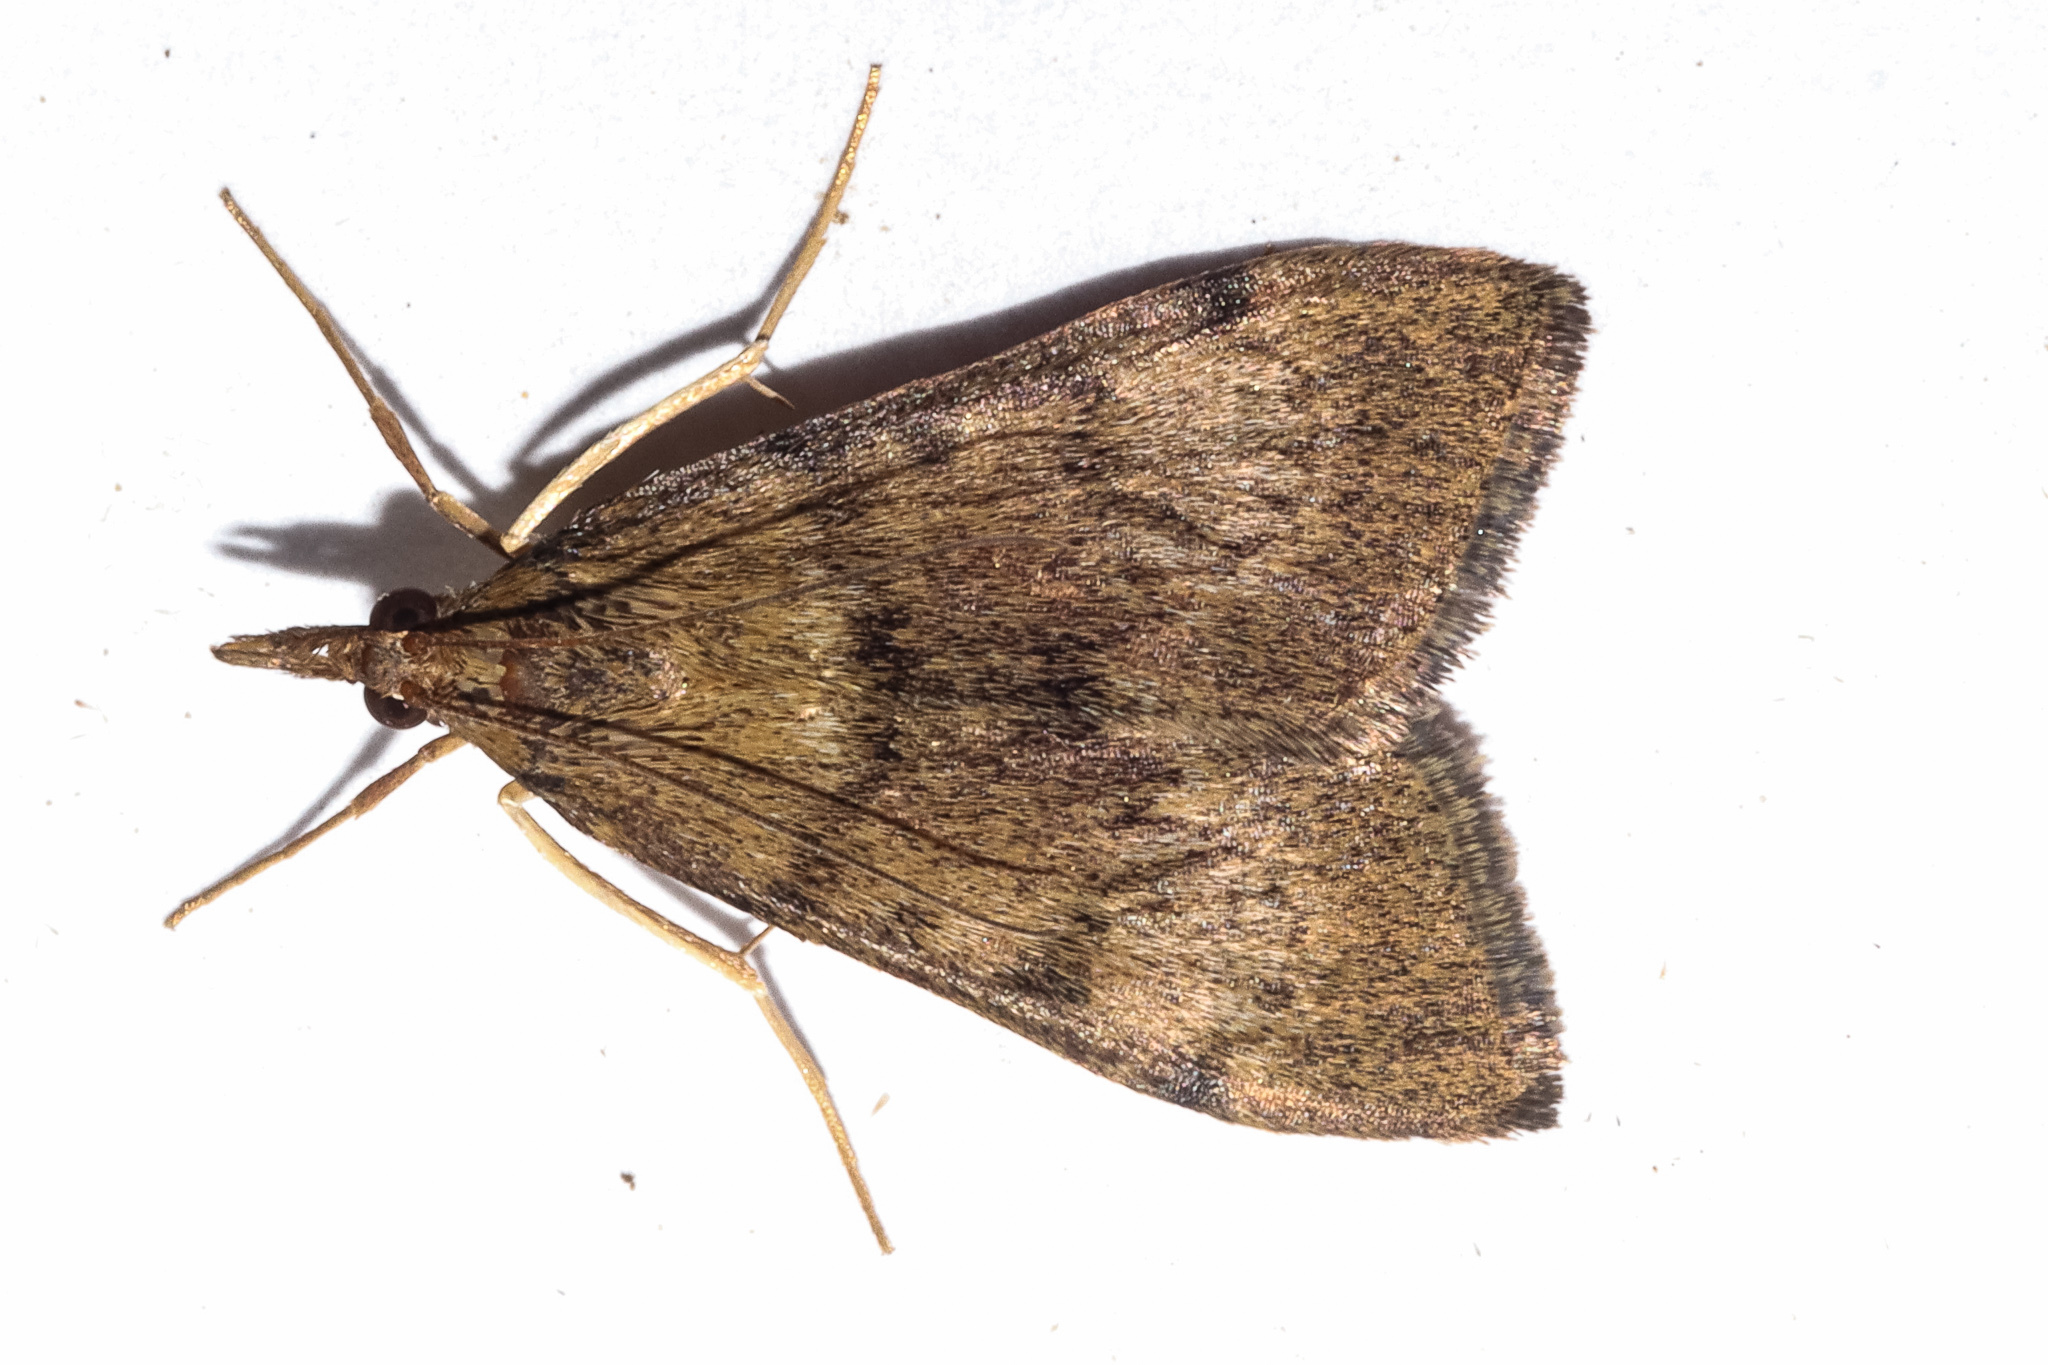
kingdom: Animalia
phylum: Arthropoda
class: Insecta
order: Lepidoptera
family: Crambidae
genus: Uresiphita
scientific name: Uresiphita
